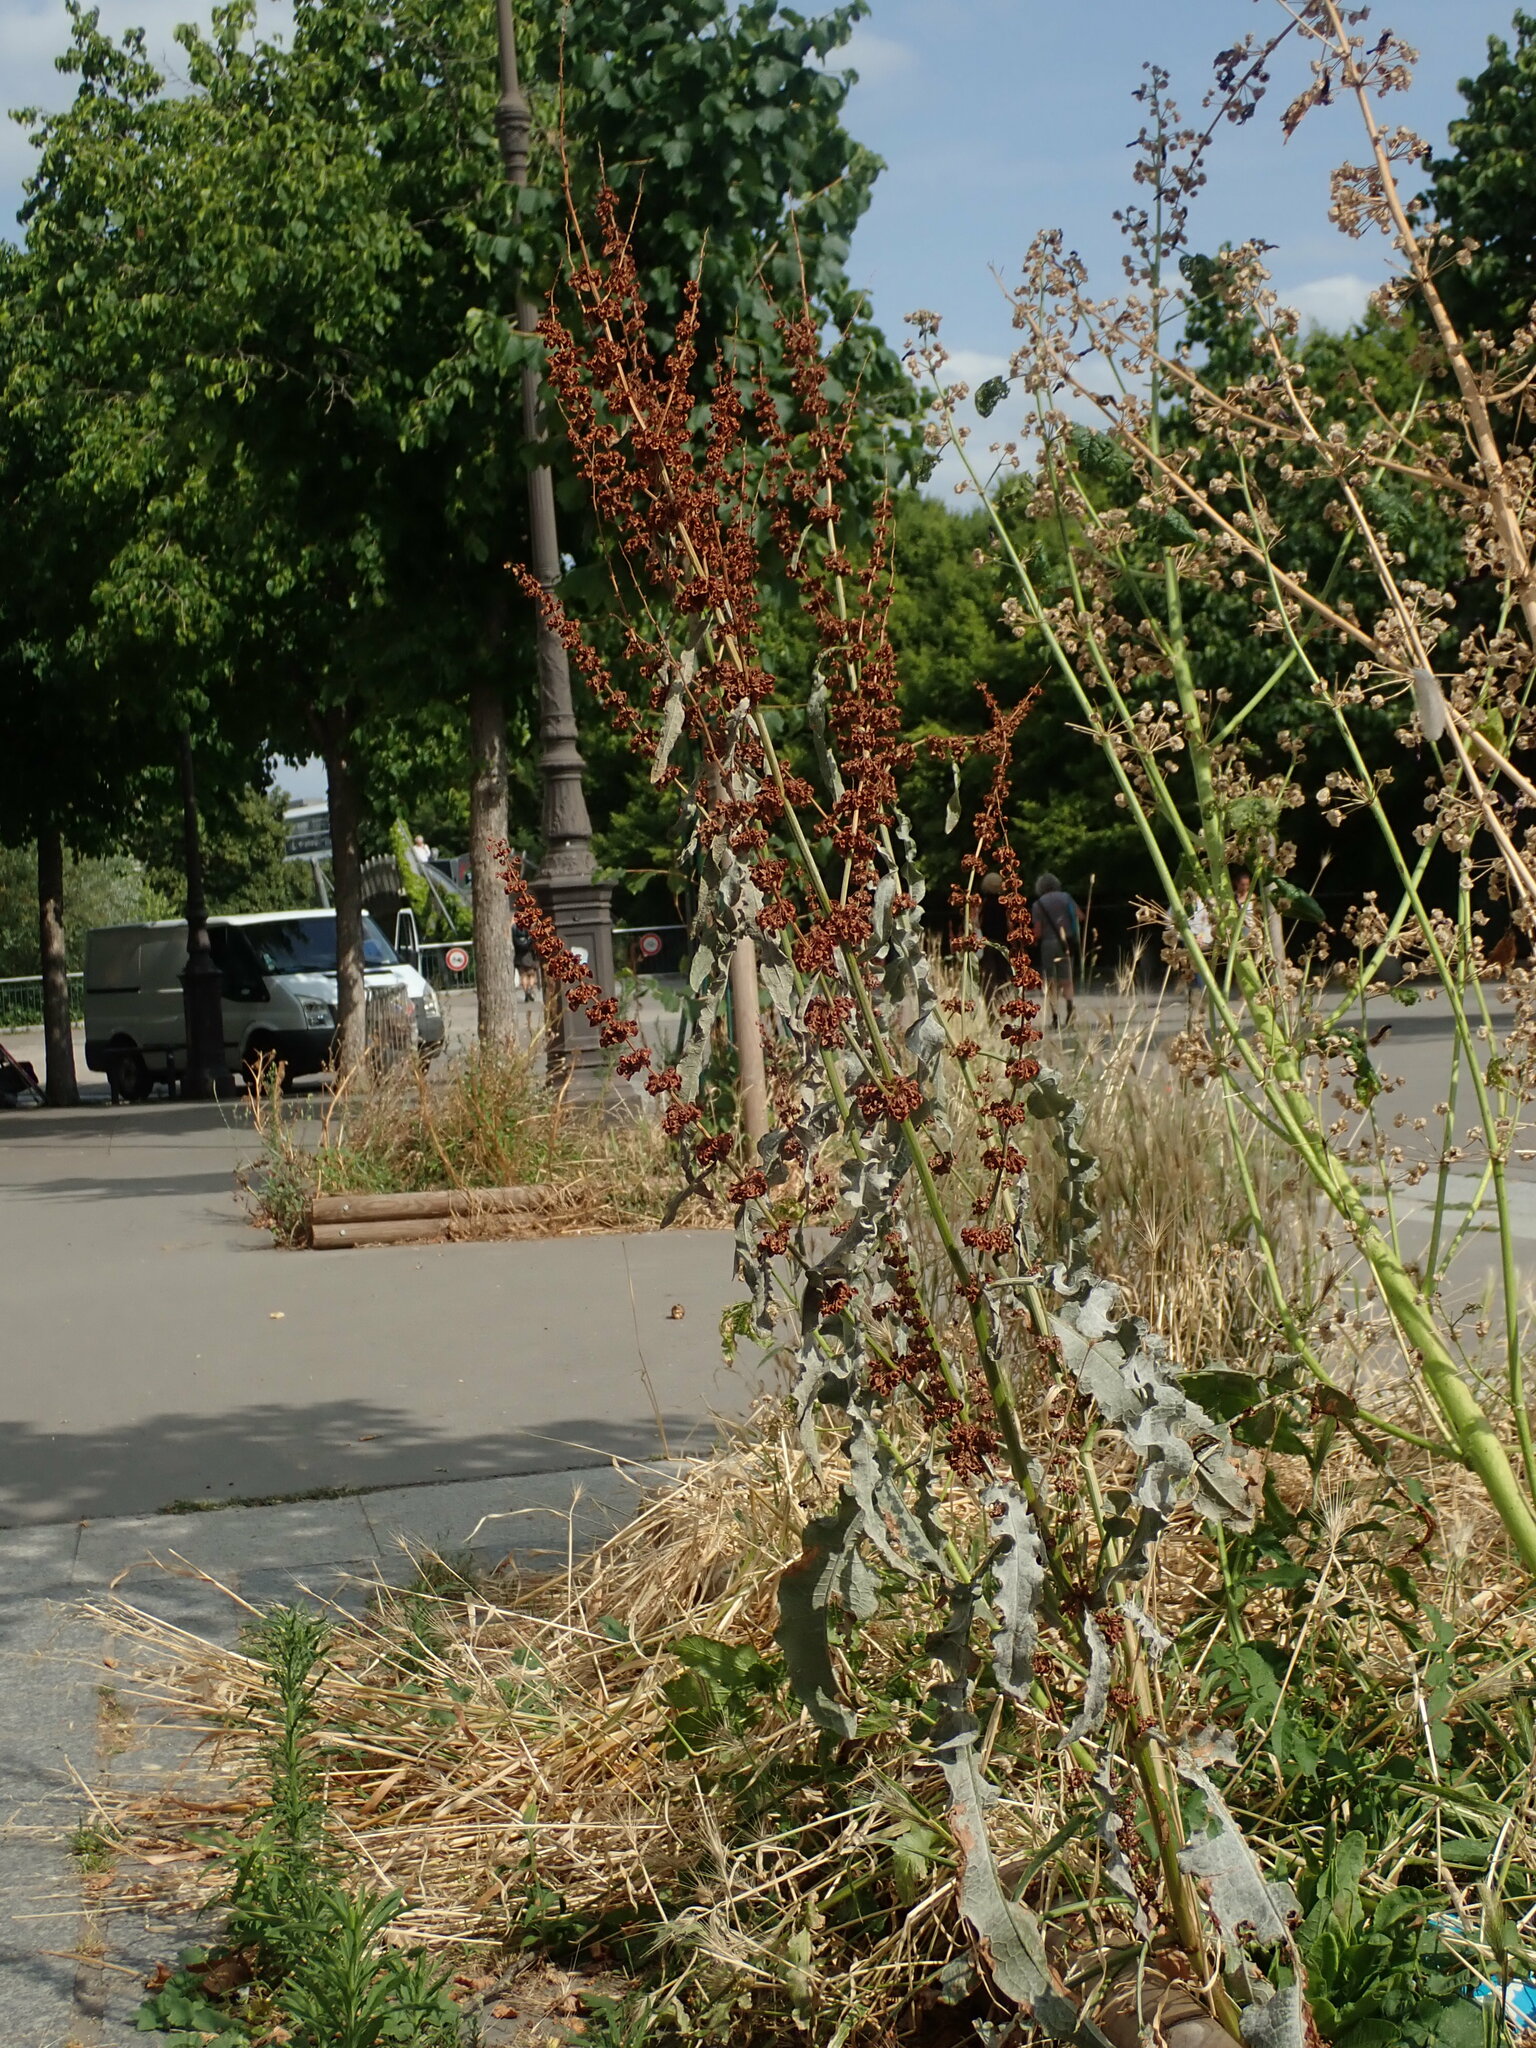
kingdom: Plantae
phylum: Tracheophyta
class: Magnoliopsida
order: Caryophyllales
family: Polygonaceae
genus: Rumex
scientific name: Rumex crispus
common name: Curled dock
